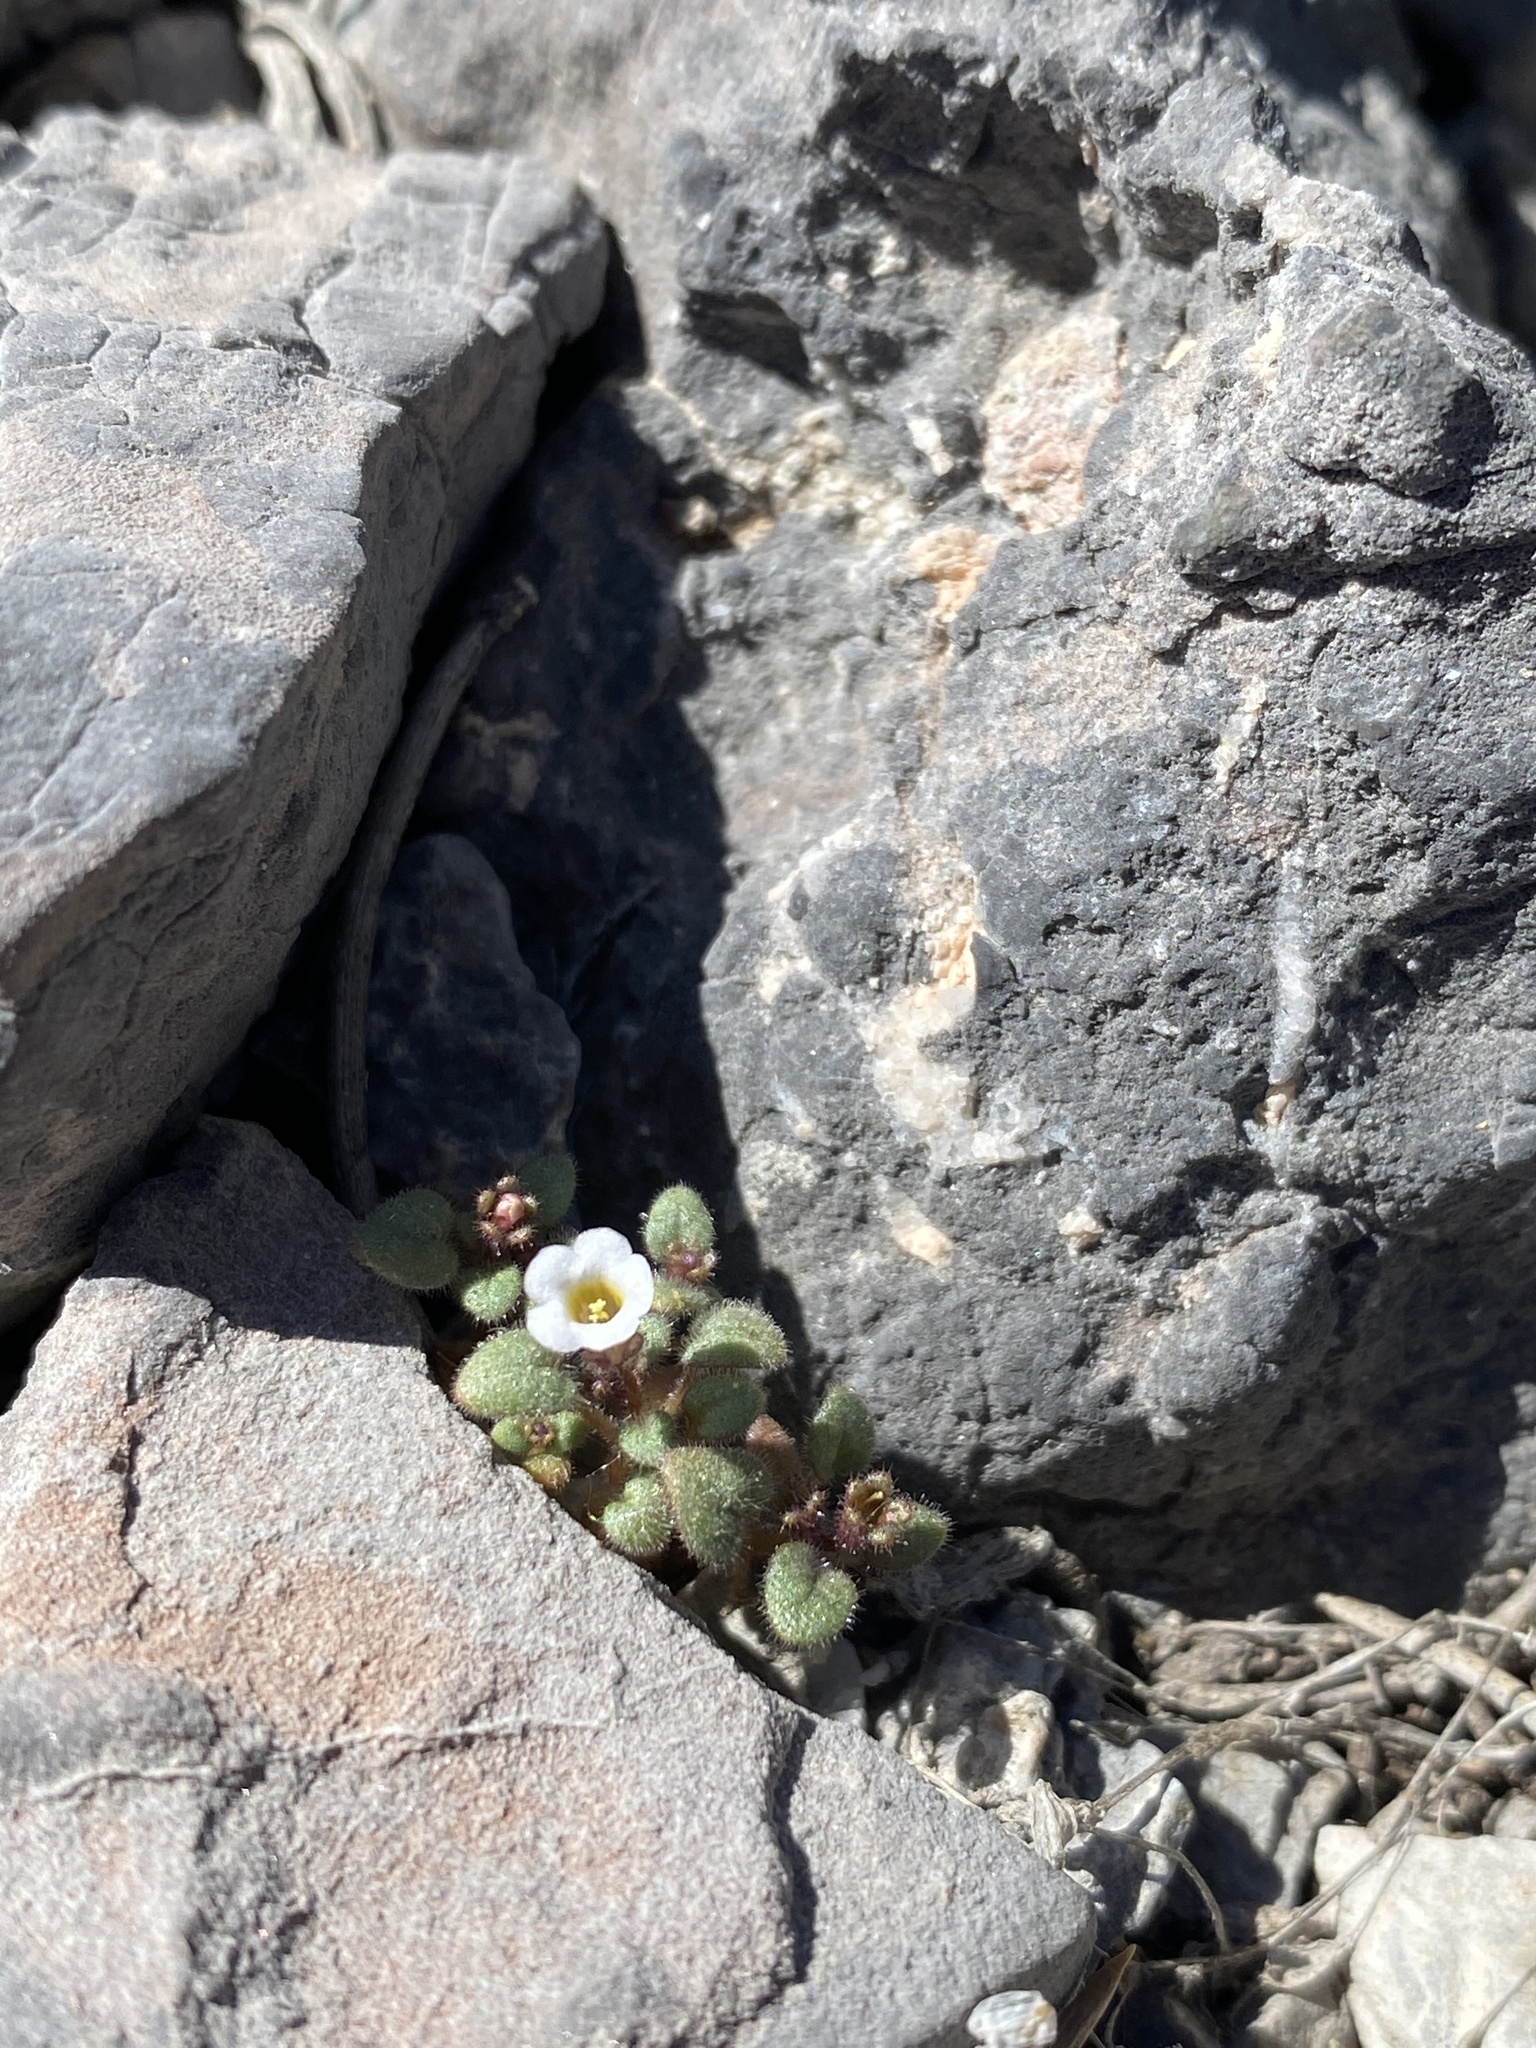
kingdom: Plantae
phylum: Tracheophyta
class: Magnoliopsida
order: Boraginales
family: Hydrophyllaceae
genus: Phacelia
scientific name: Phacelia barnebyana
